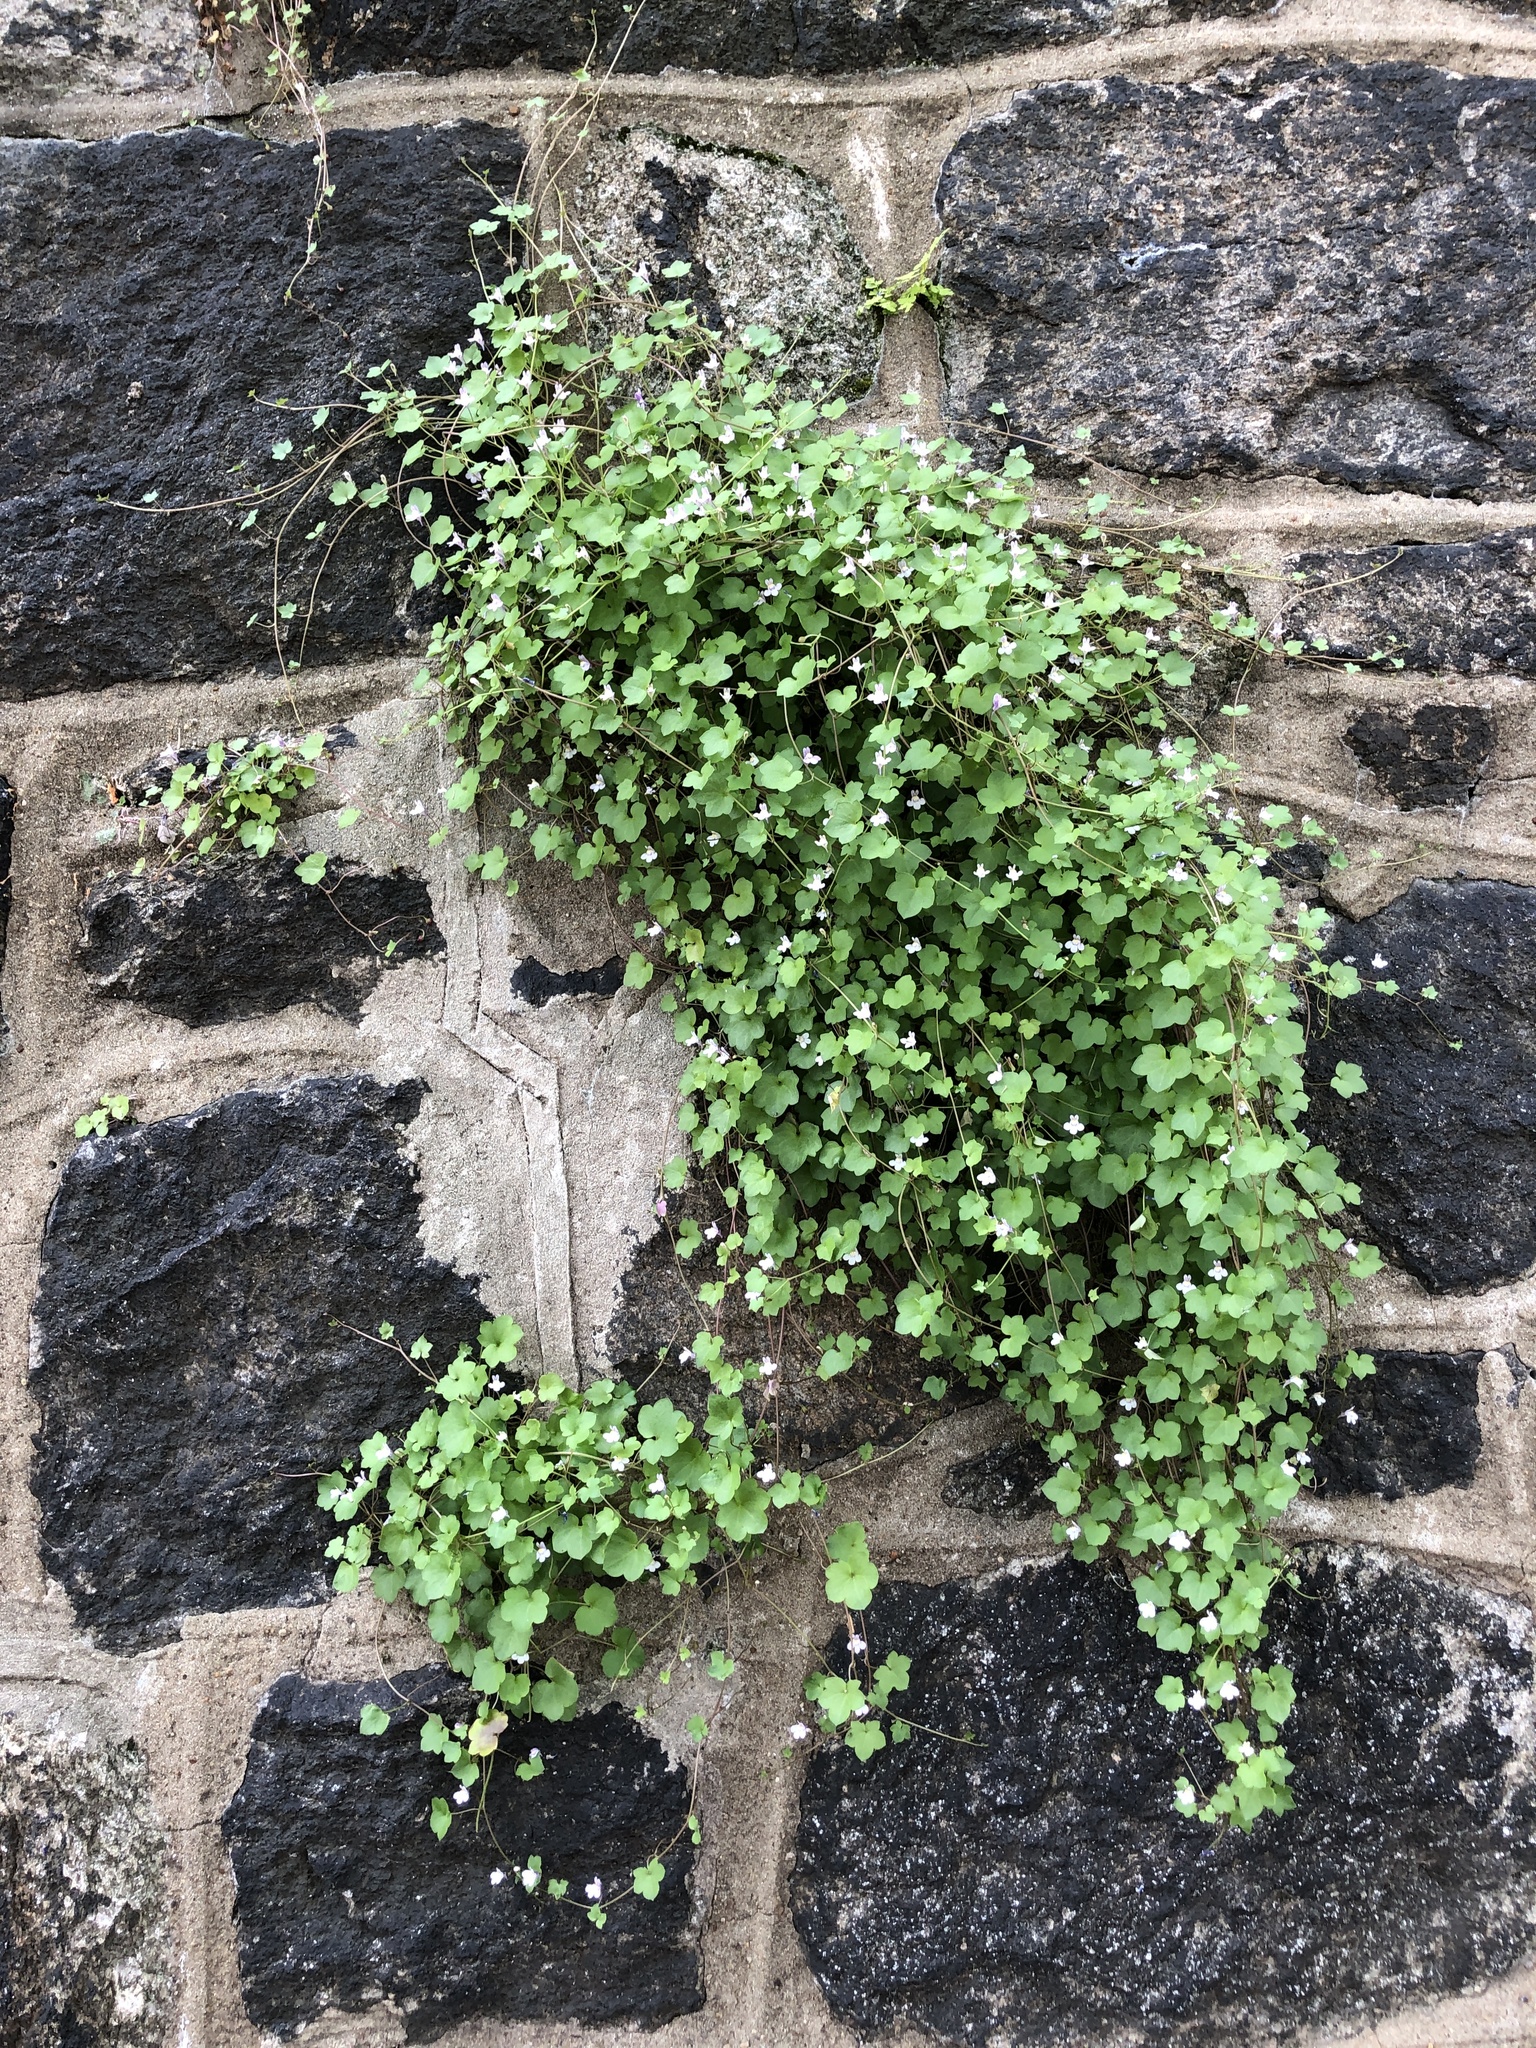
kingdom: Plantae
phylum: Tracheophyta
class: Magnoliopsida
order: Lamiales
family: Plantaginaceae
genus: Cymbalaria
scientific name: Cymbalaria muralis
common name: Ivy-leaved toadflax
